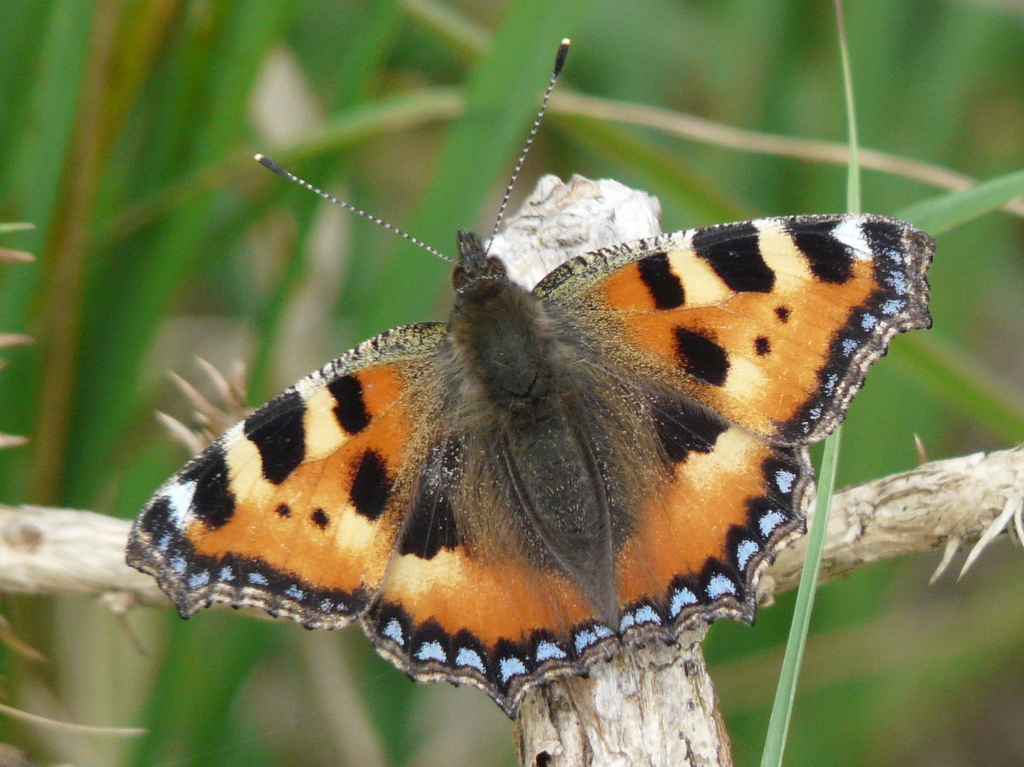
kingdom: Animalia
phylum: Arthropoda
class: Insecta
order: Lepidoptera
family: Nymphalidae
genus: Aglais
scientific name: Aglais urticae
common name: Small tortoiseshell
